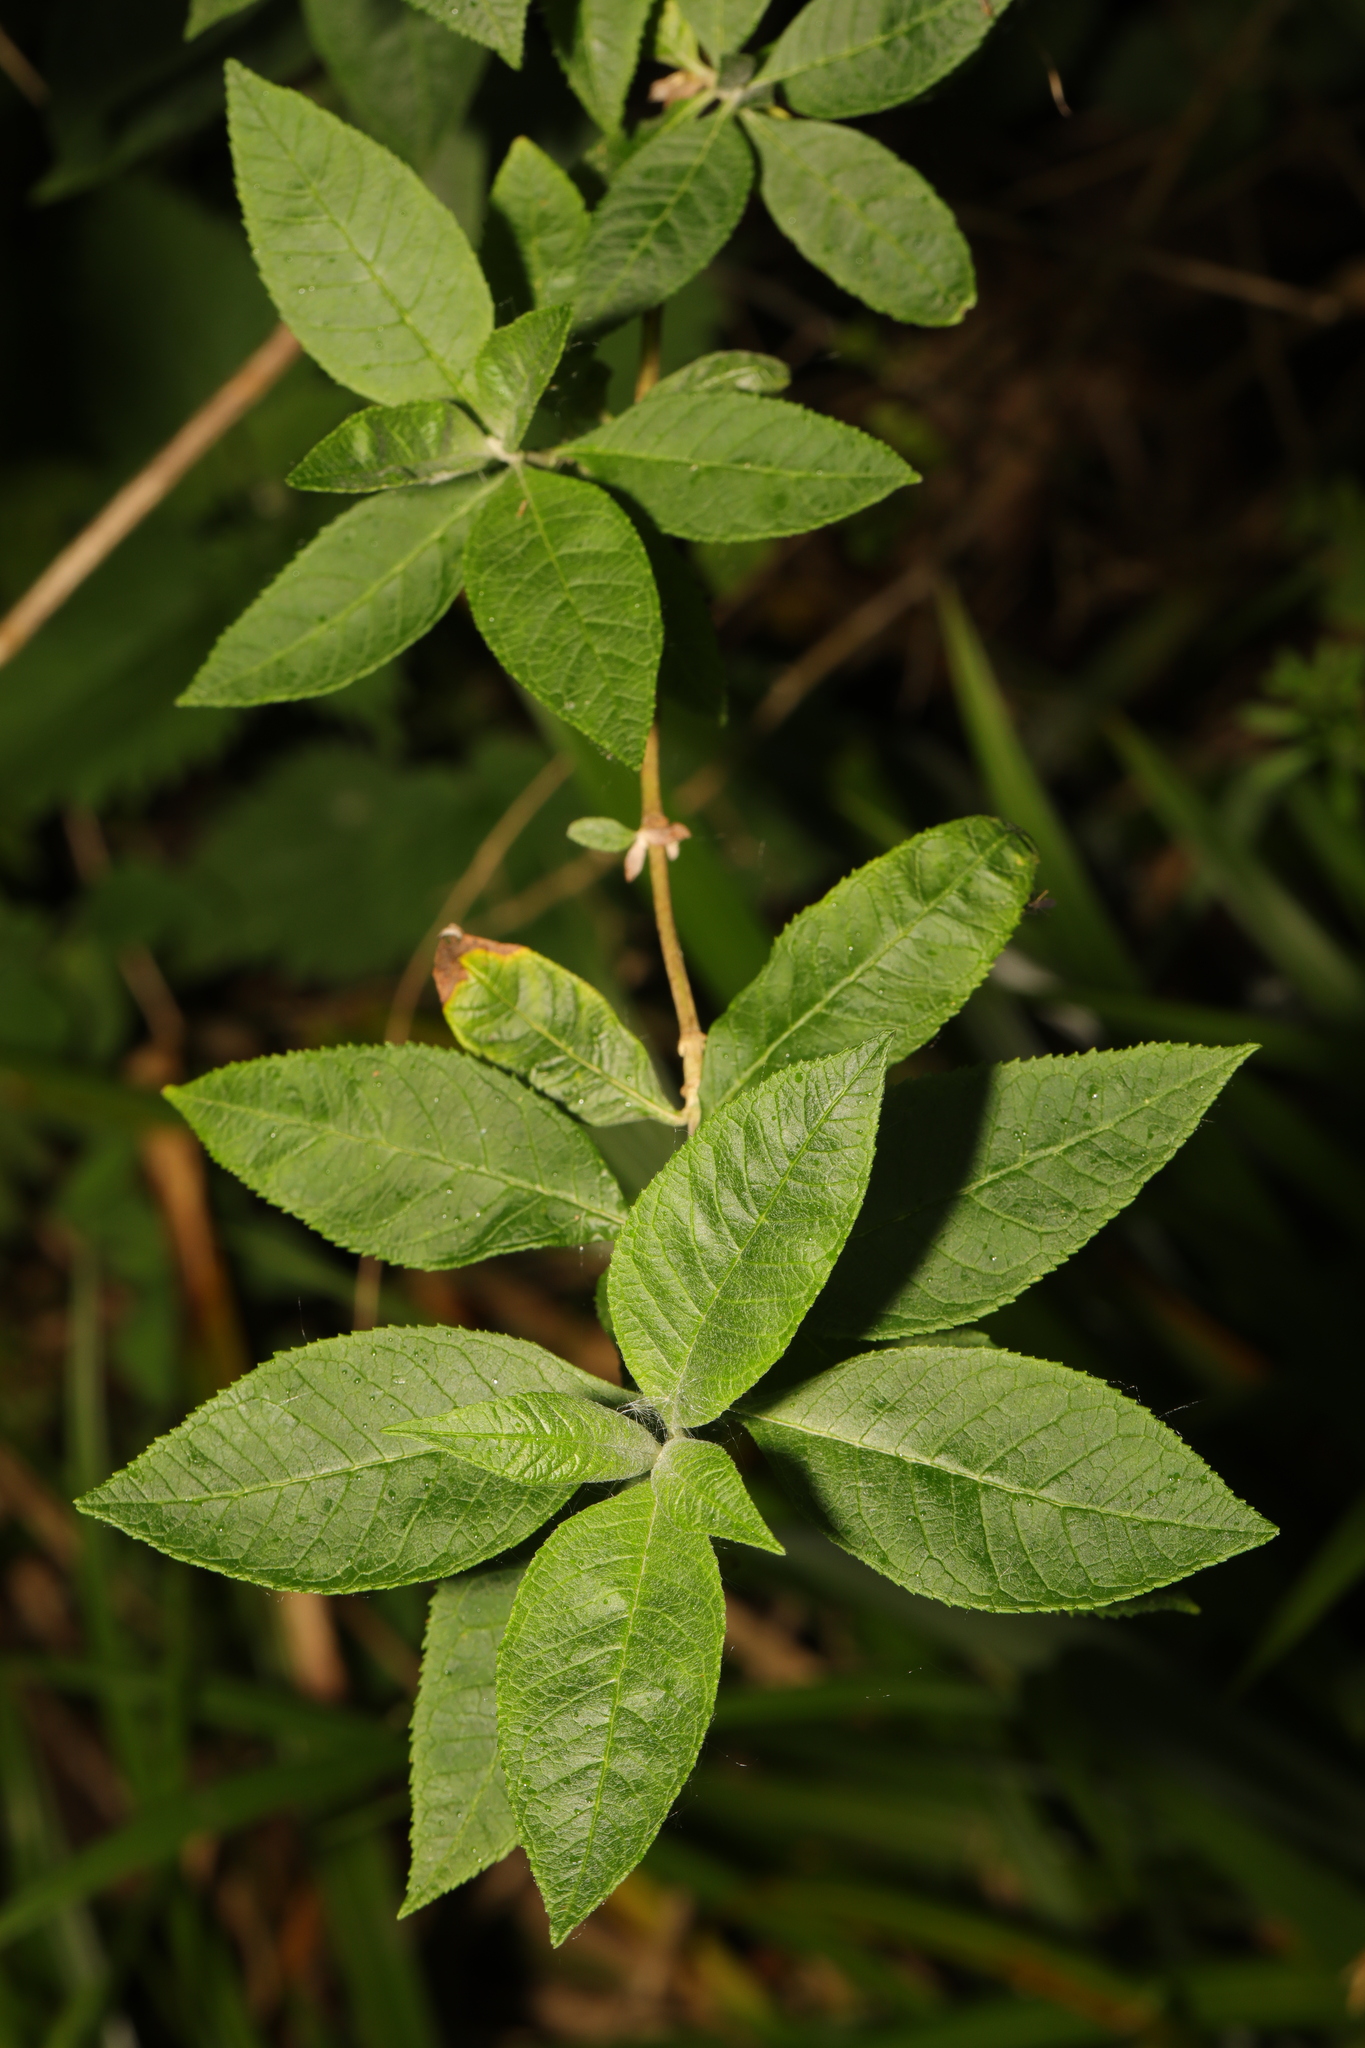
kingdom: Plantae
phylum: Tracheophyta
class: Magnoliopsida
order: Lamiales
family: Scrophulariaceae
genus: Buddleja
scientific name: Buddleja davidii
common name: Butterfly-bush
